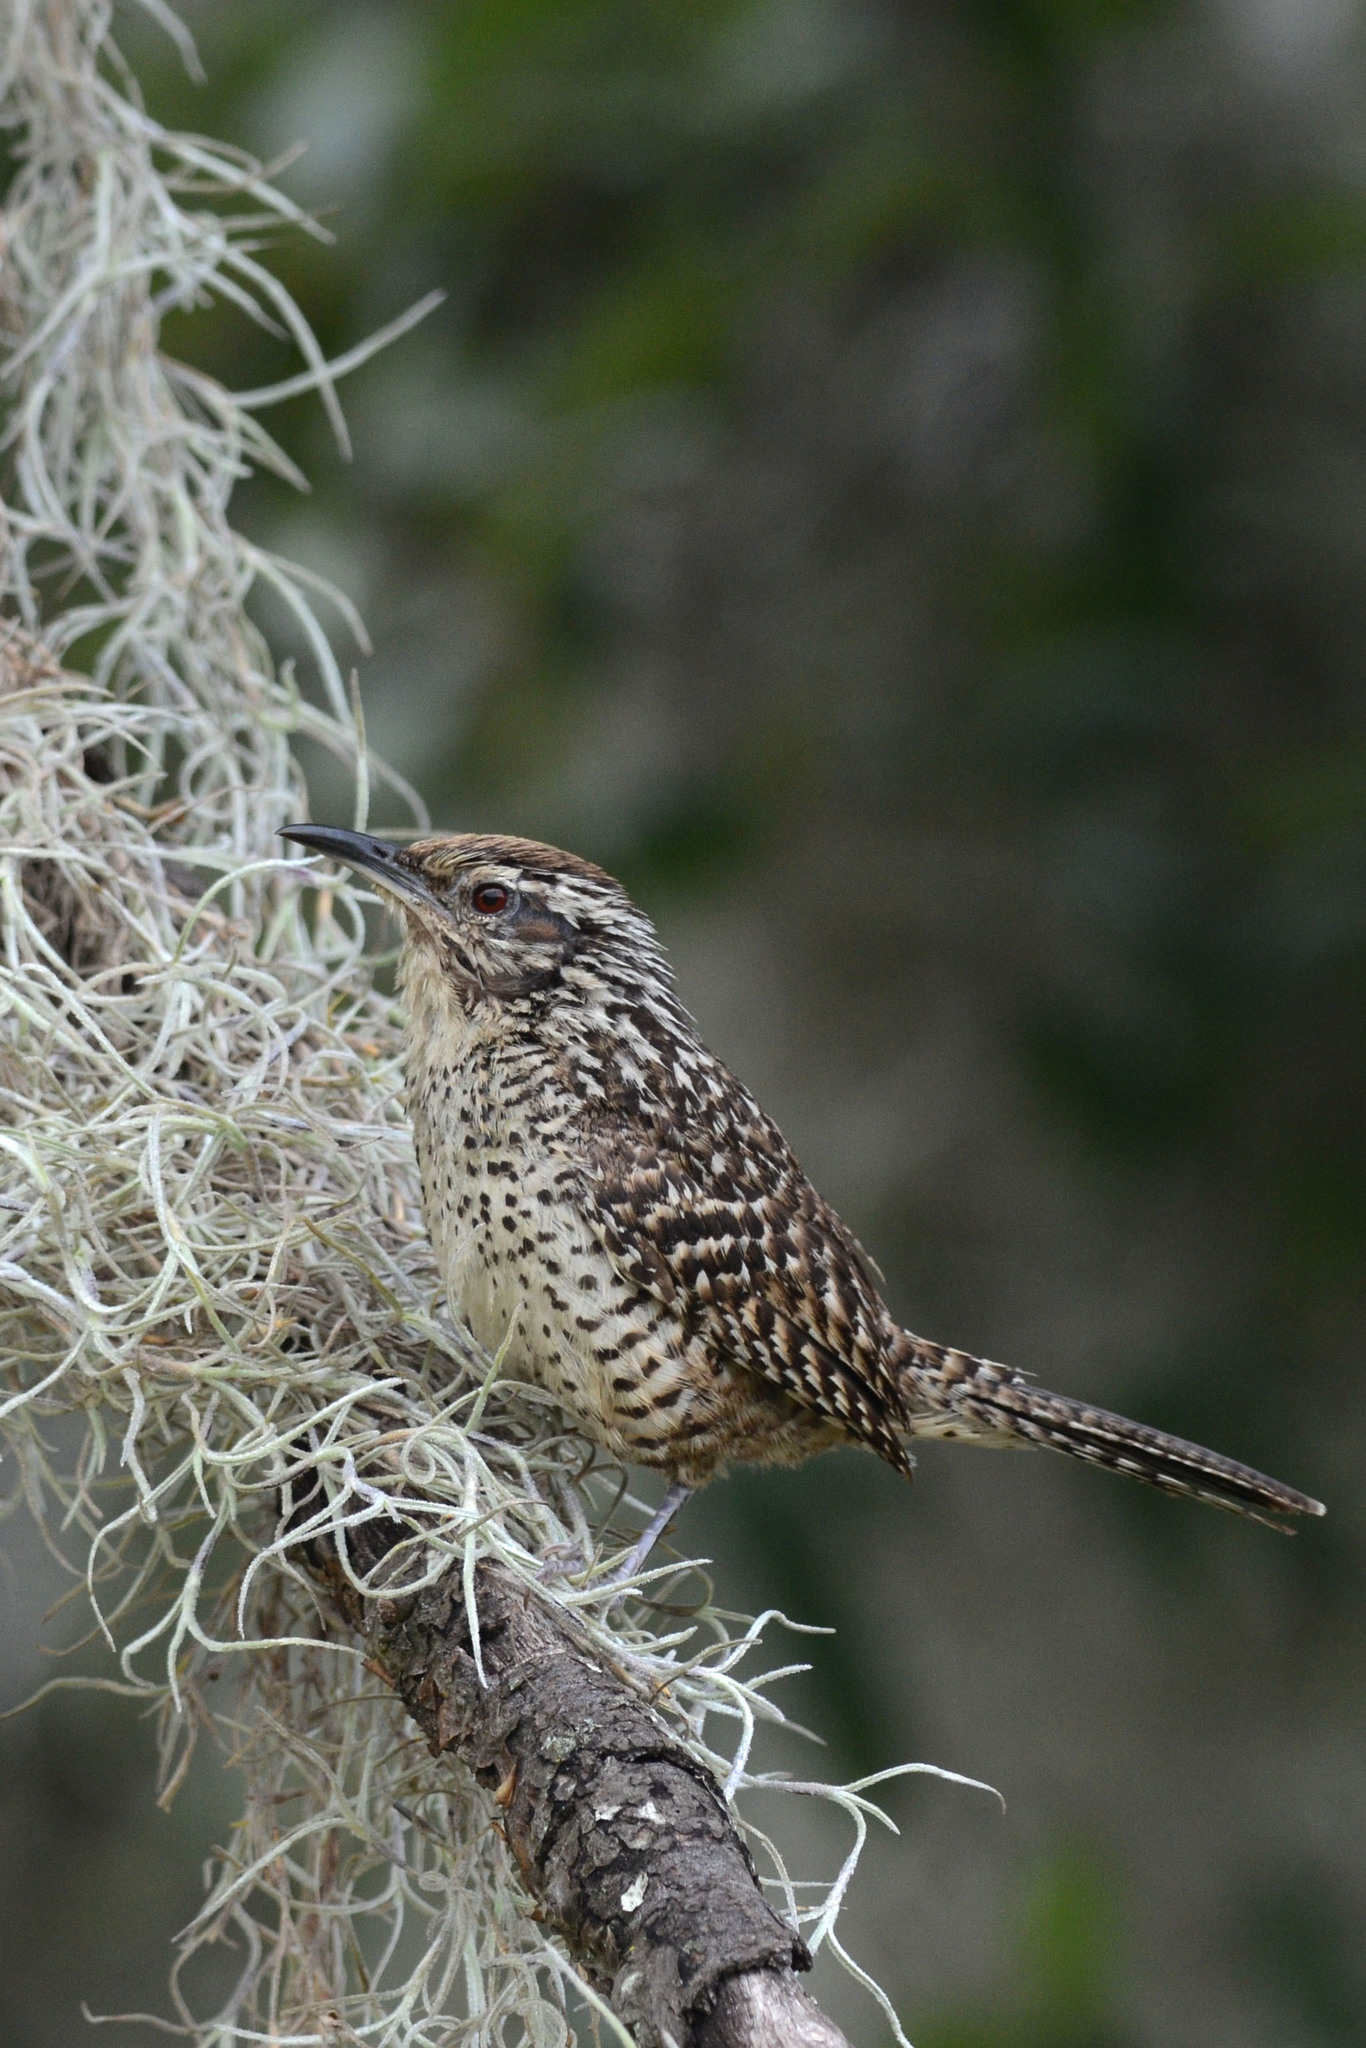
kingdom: Animalia
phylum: Chordata
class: Aves
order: Passeriformes
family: Troglodytidae
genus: Campylorhynchus
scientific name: Campylorhynchus gularis
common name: Spotted wren
